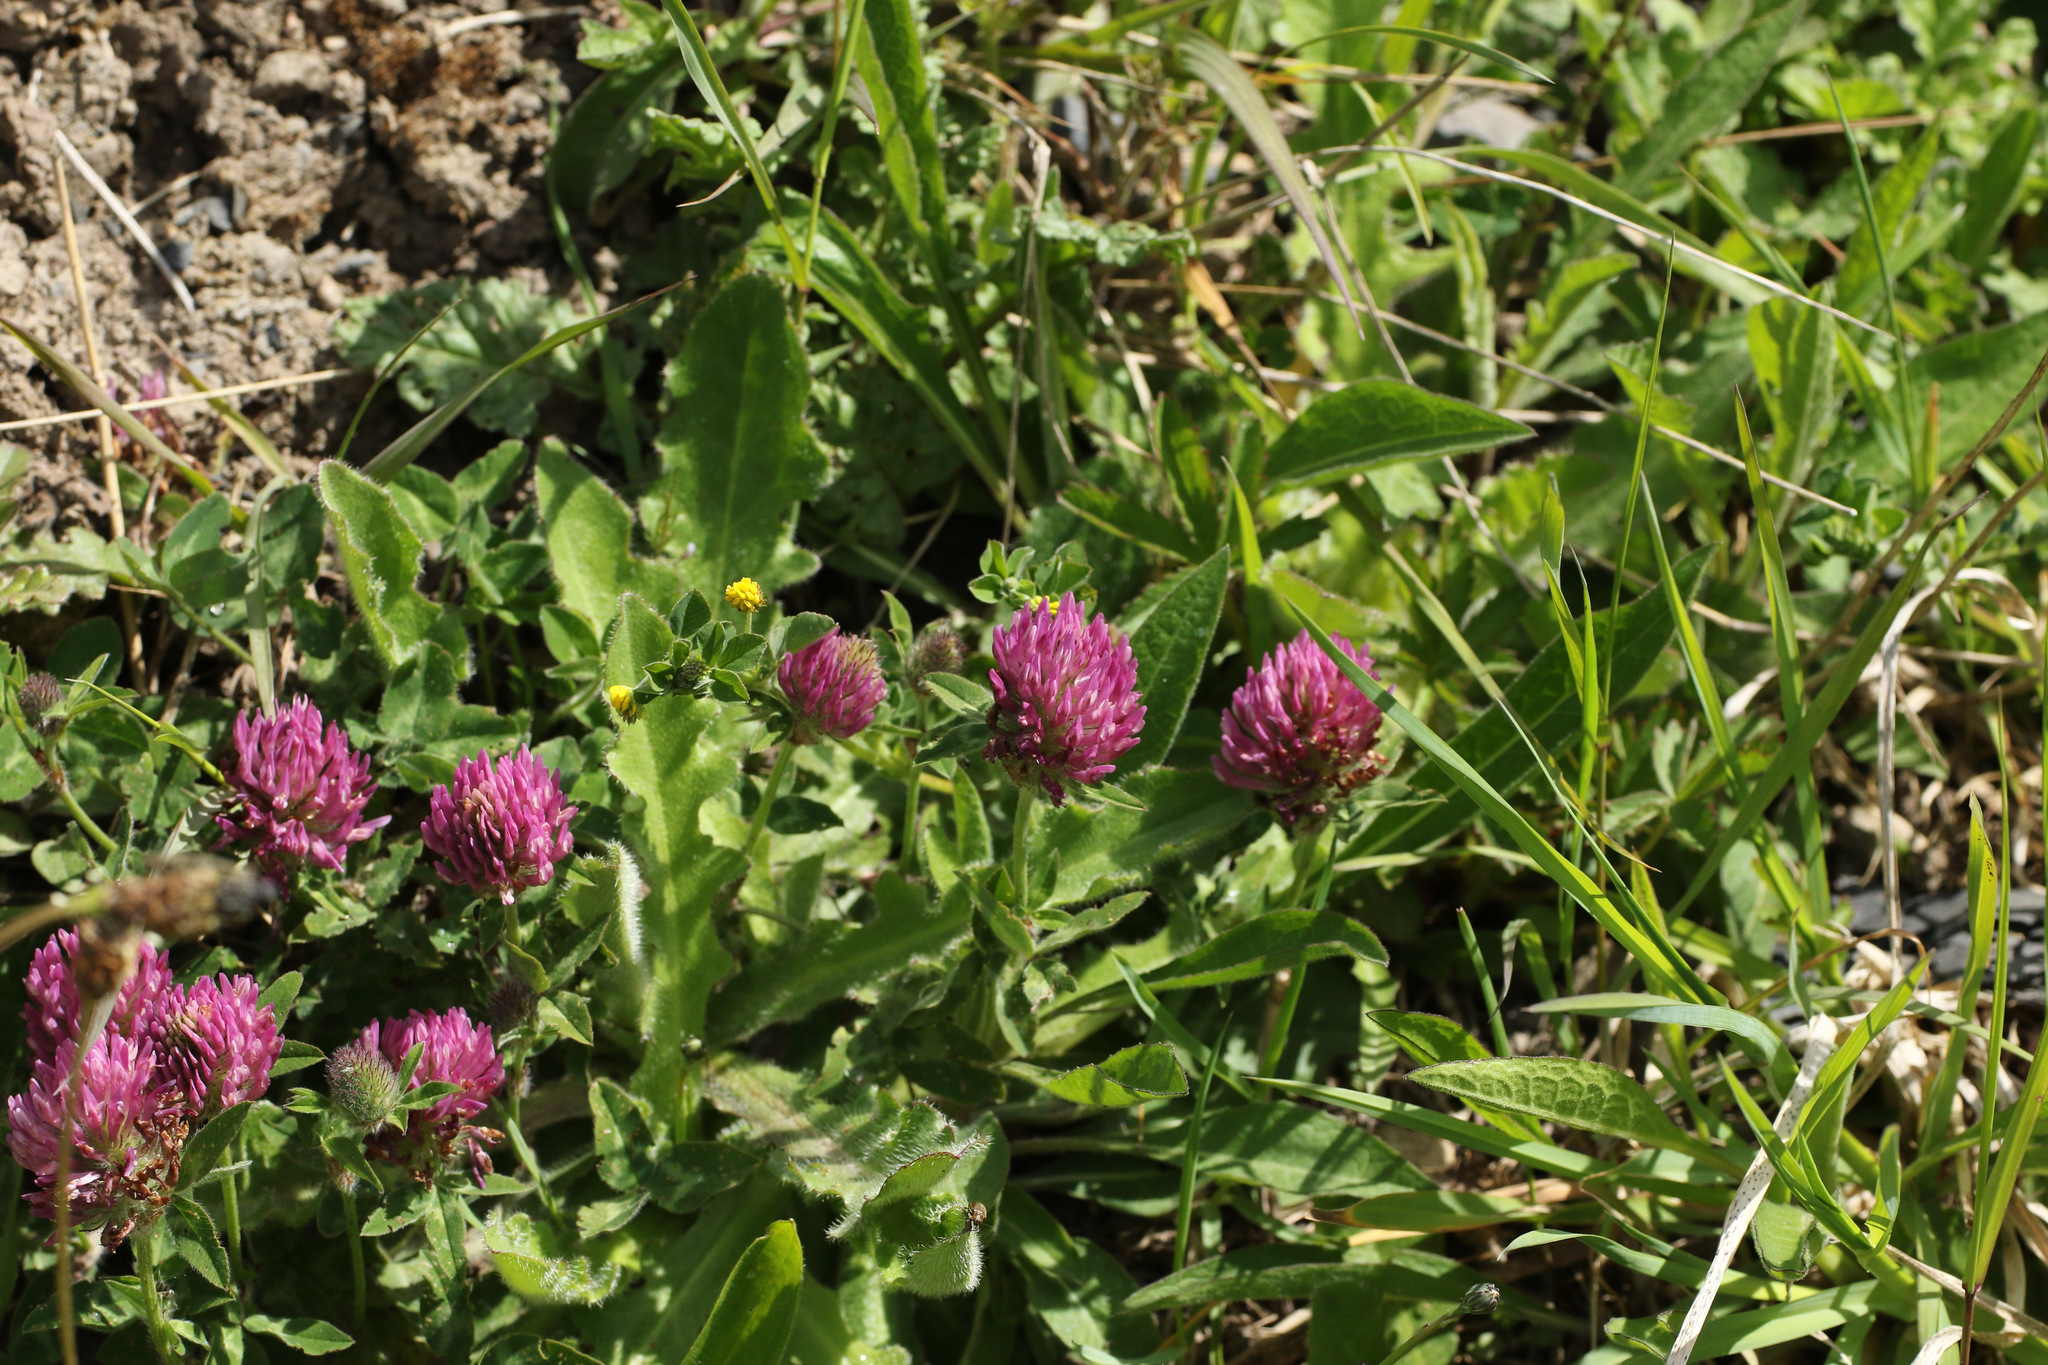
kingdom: Plantae
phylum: Tracheophyta
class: Magnoliopsida
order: Fabales
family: Fabaceae
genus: Trifolium
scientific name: Trifolium pratense
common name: Red clover
